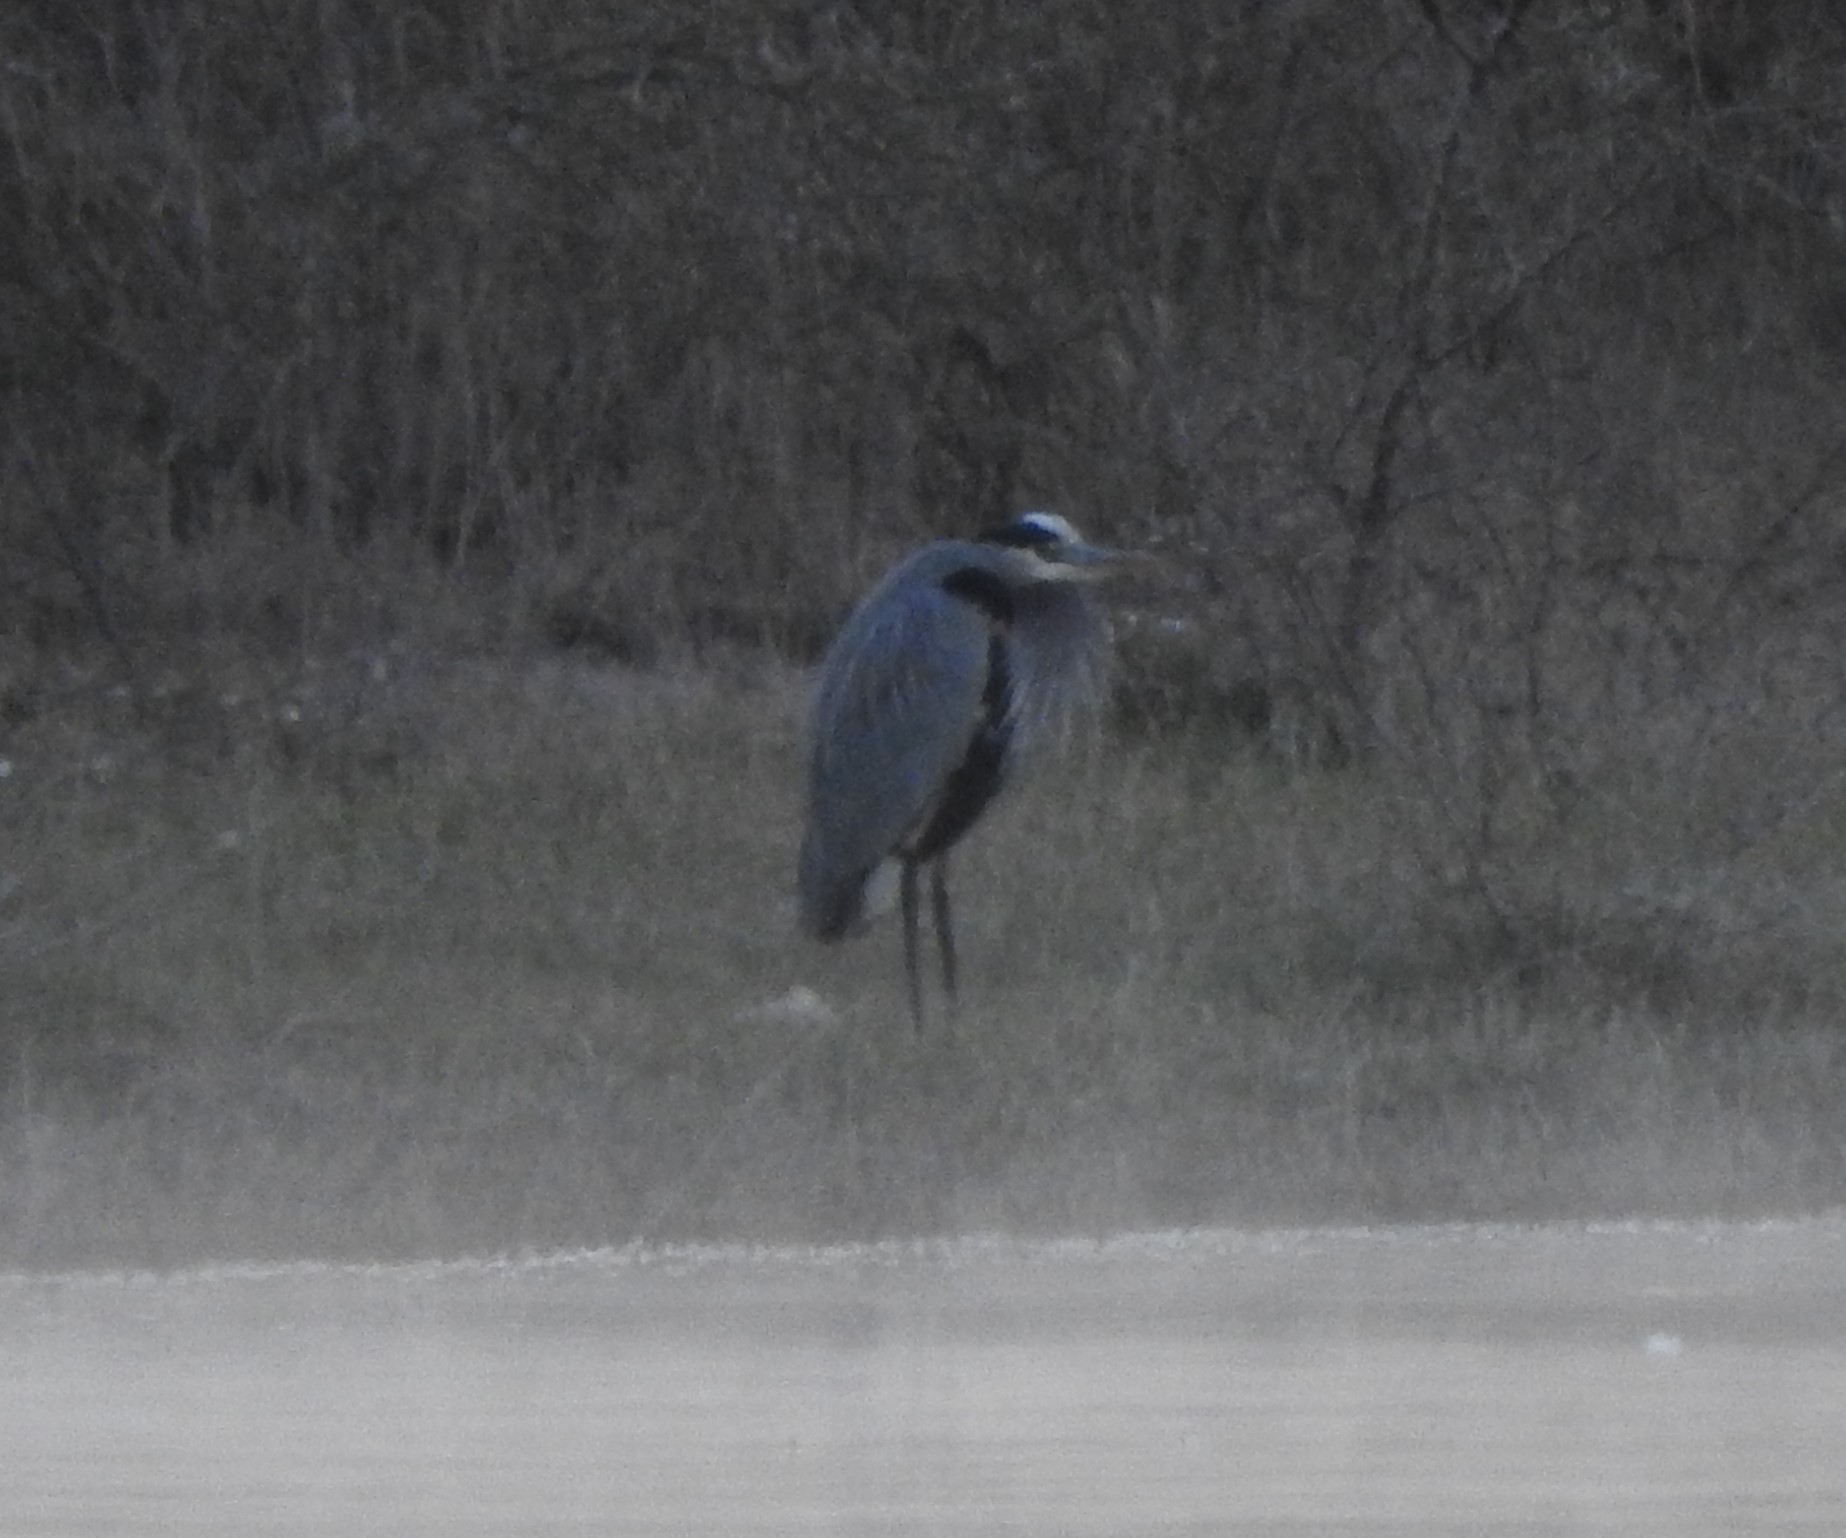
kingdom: Animalia
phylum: Chordata
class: Aves
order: Pelecaniformes
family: Ardeidae
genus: Ardea
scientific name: Ardea herodias
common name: Great blue heron
